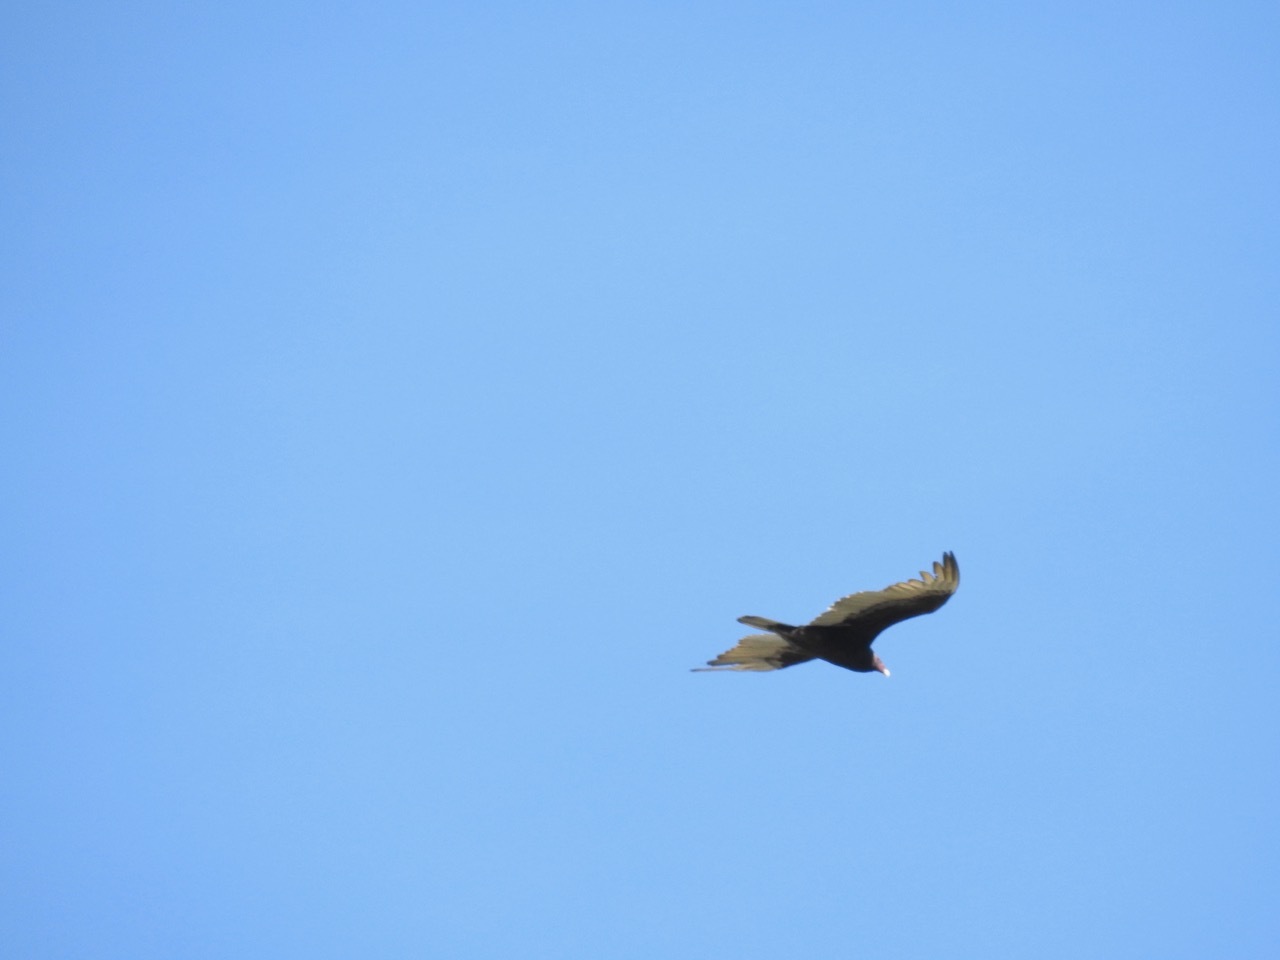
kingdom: Animalia
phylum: Chordata
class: Aves
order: Accipitriformes
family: Cathartidae
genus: Cathartes
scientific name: Cathartes aura
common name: Turkey vulture
